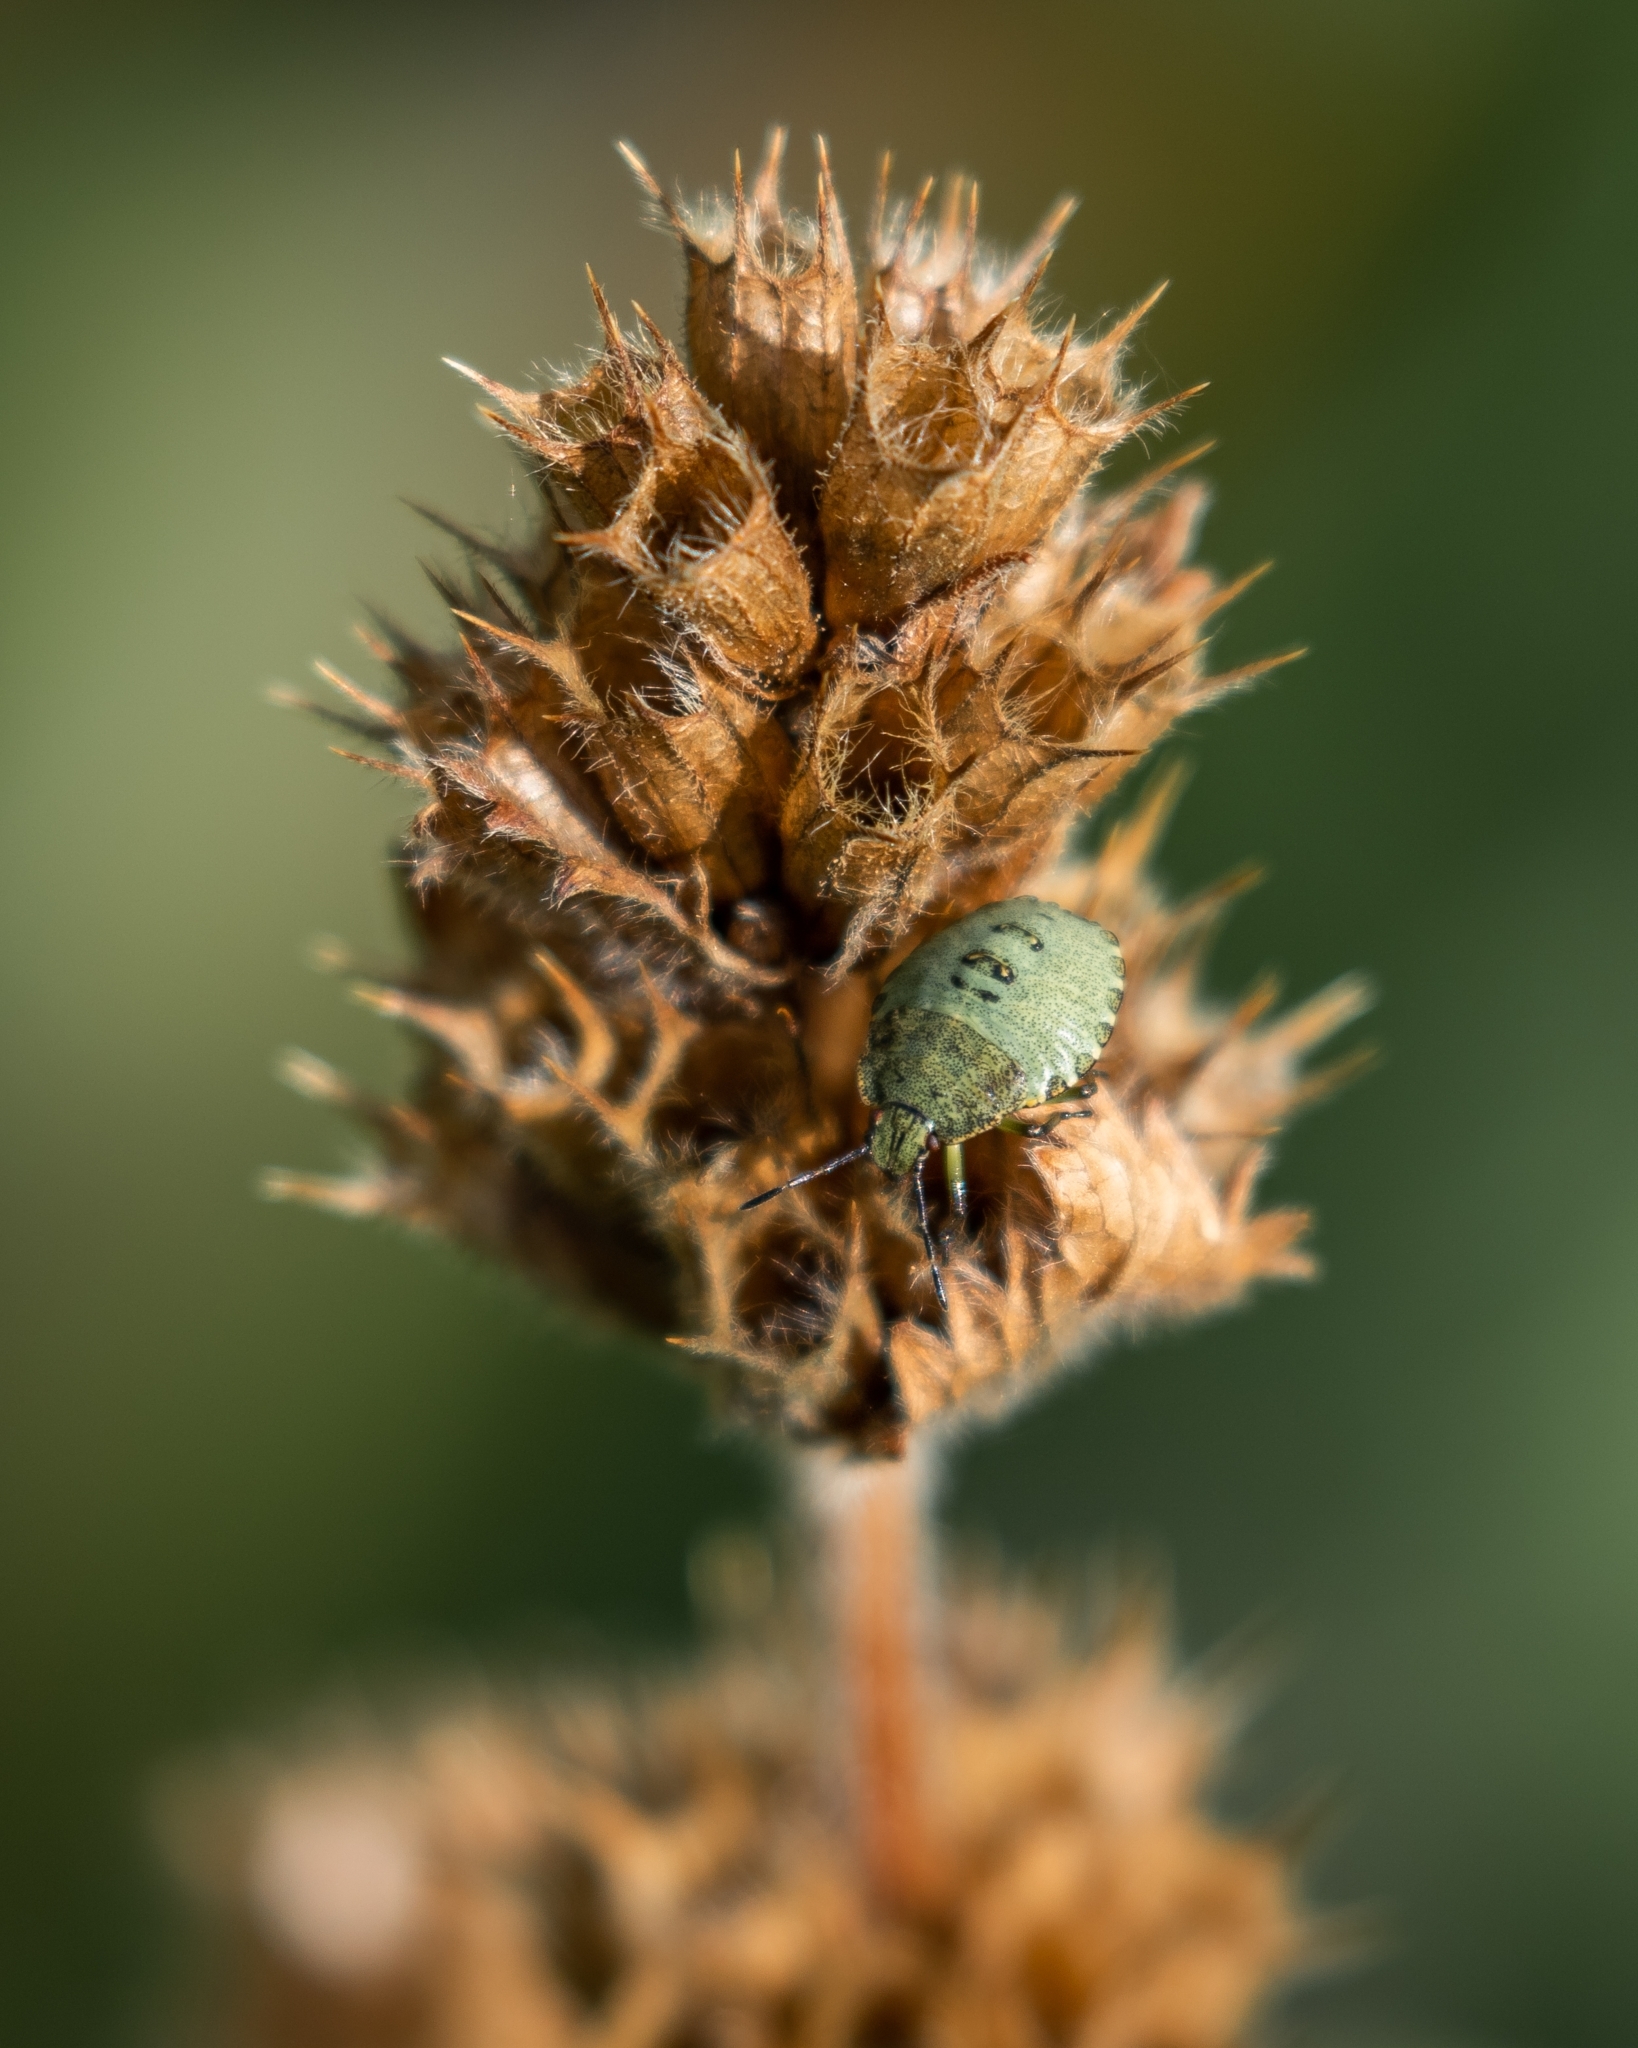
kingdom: Animalia
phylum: Arthropoda
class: Insecta
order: Hemiptera
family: Pentatomidae
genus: Palomena
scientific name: Palomena prasina
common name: Green shieldbug
